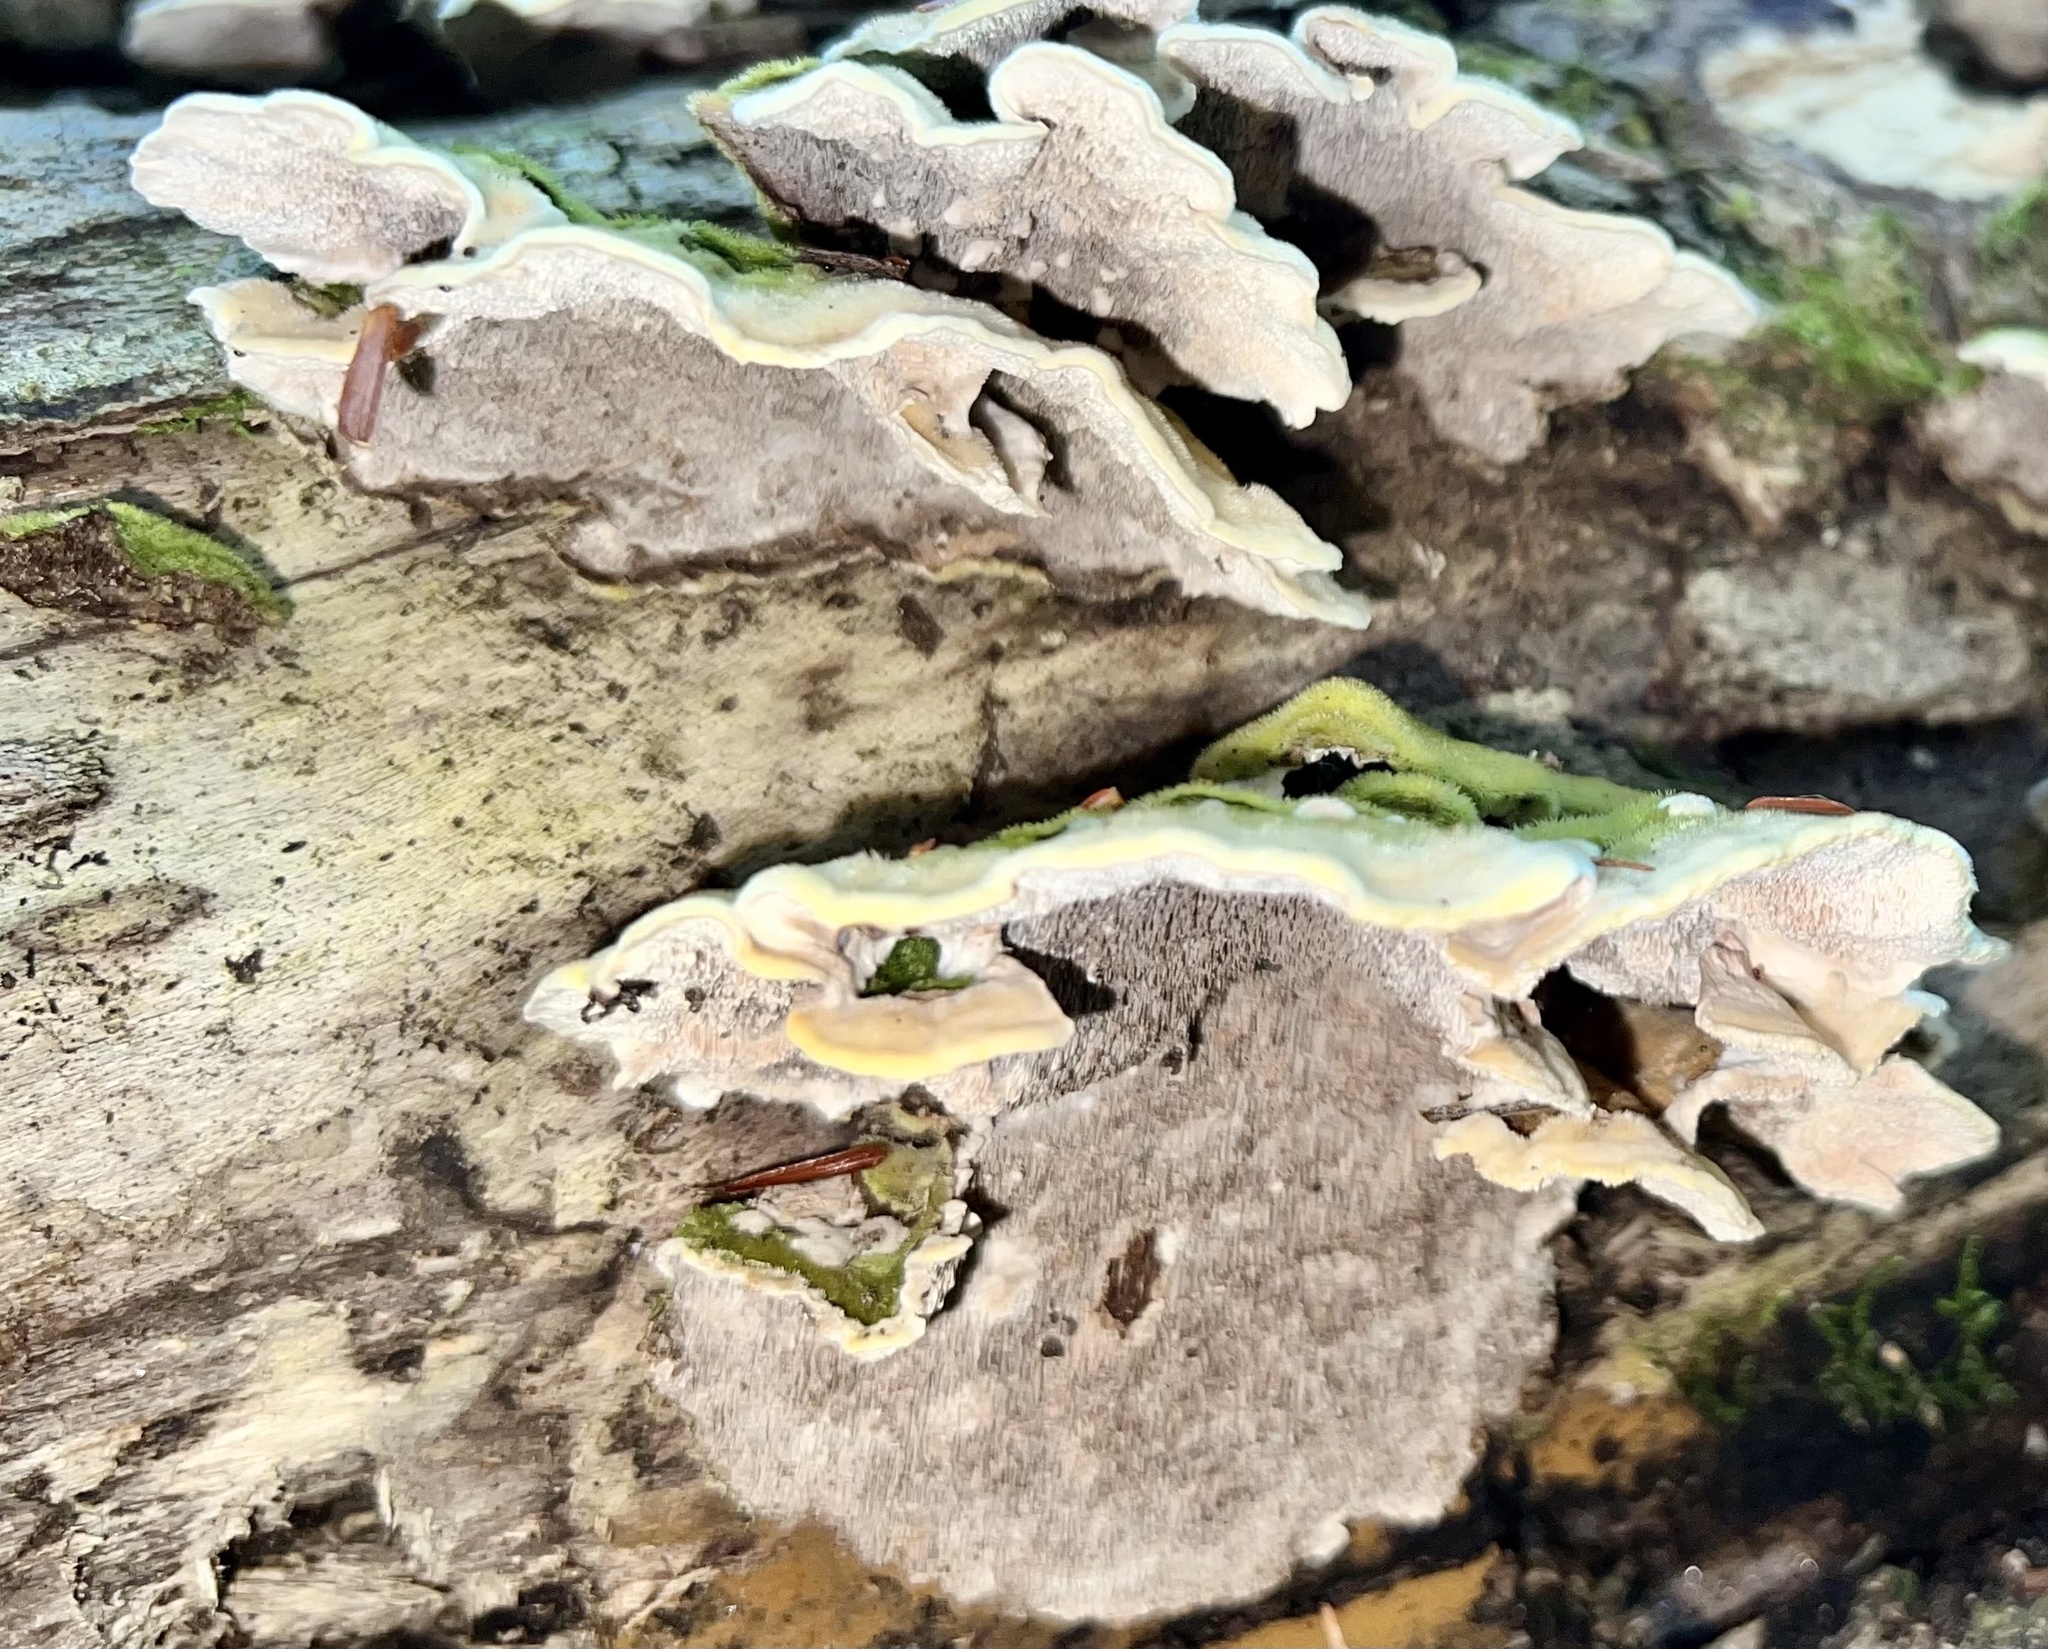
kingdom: Fungi
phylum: Basidiomycota
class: Agaricomycetes
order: Polyporales
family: Cerrenaceae
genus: Cerrena
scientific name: Cerrena unicolor
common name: Mossy maze polypore
